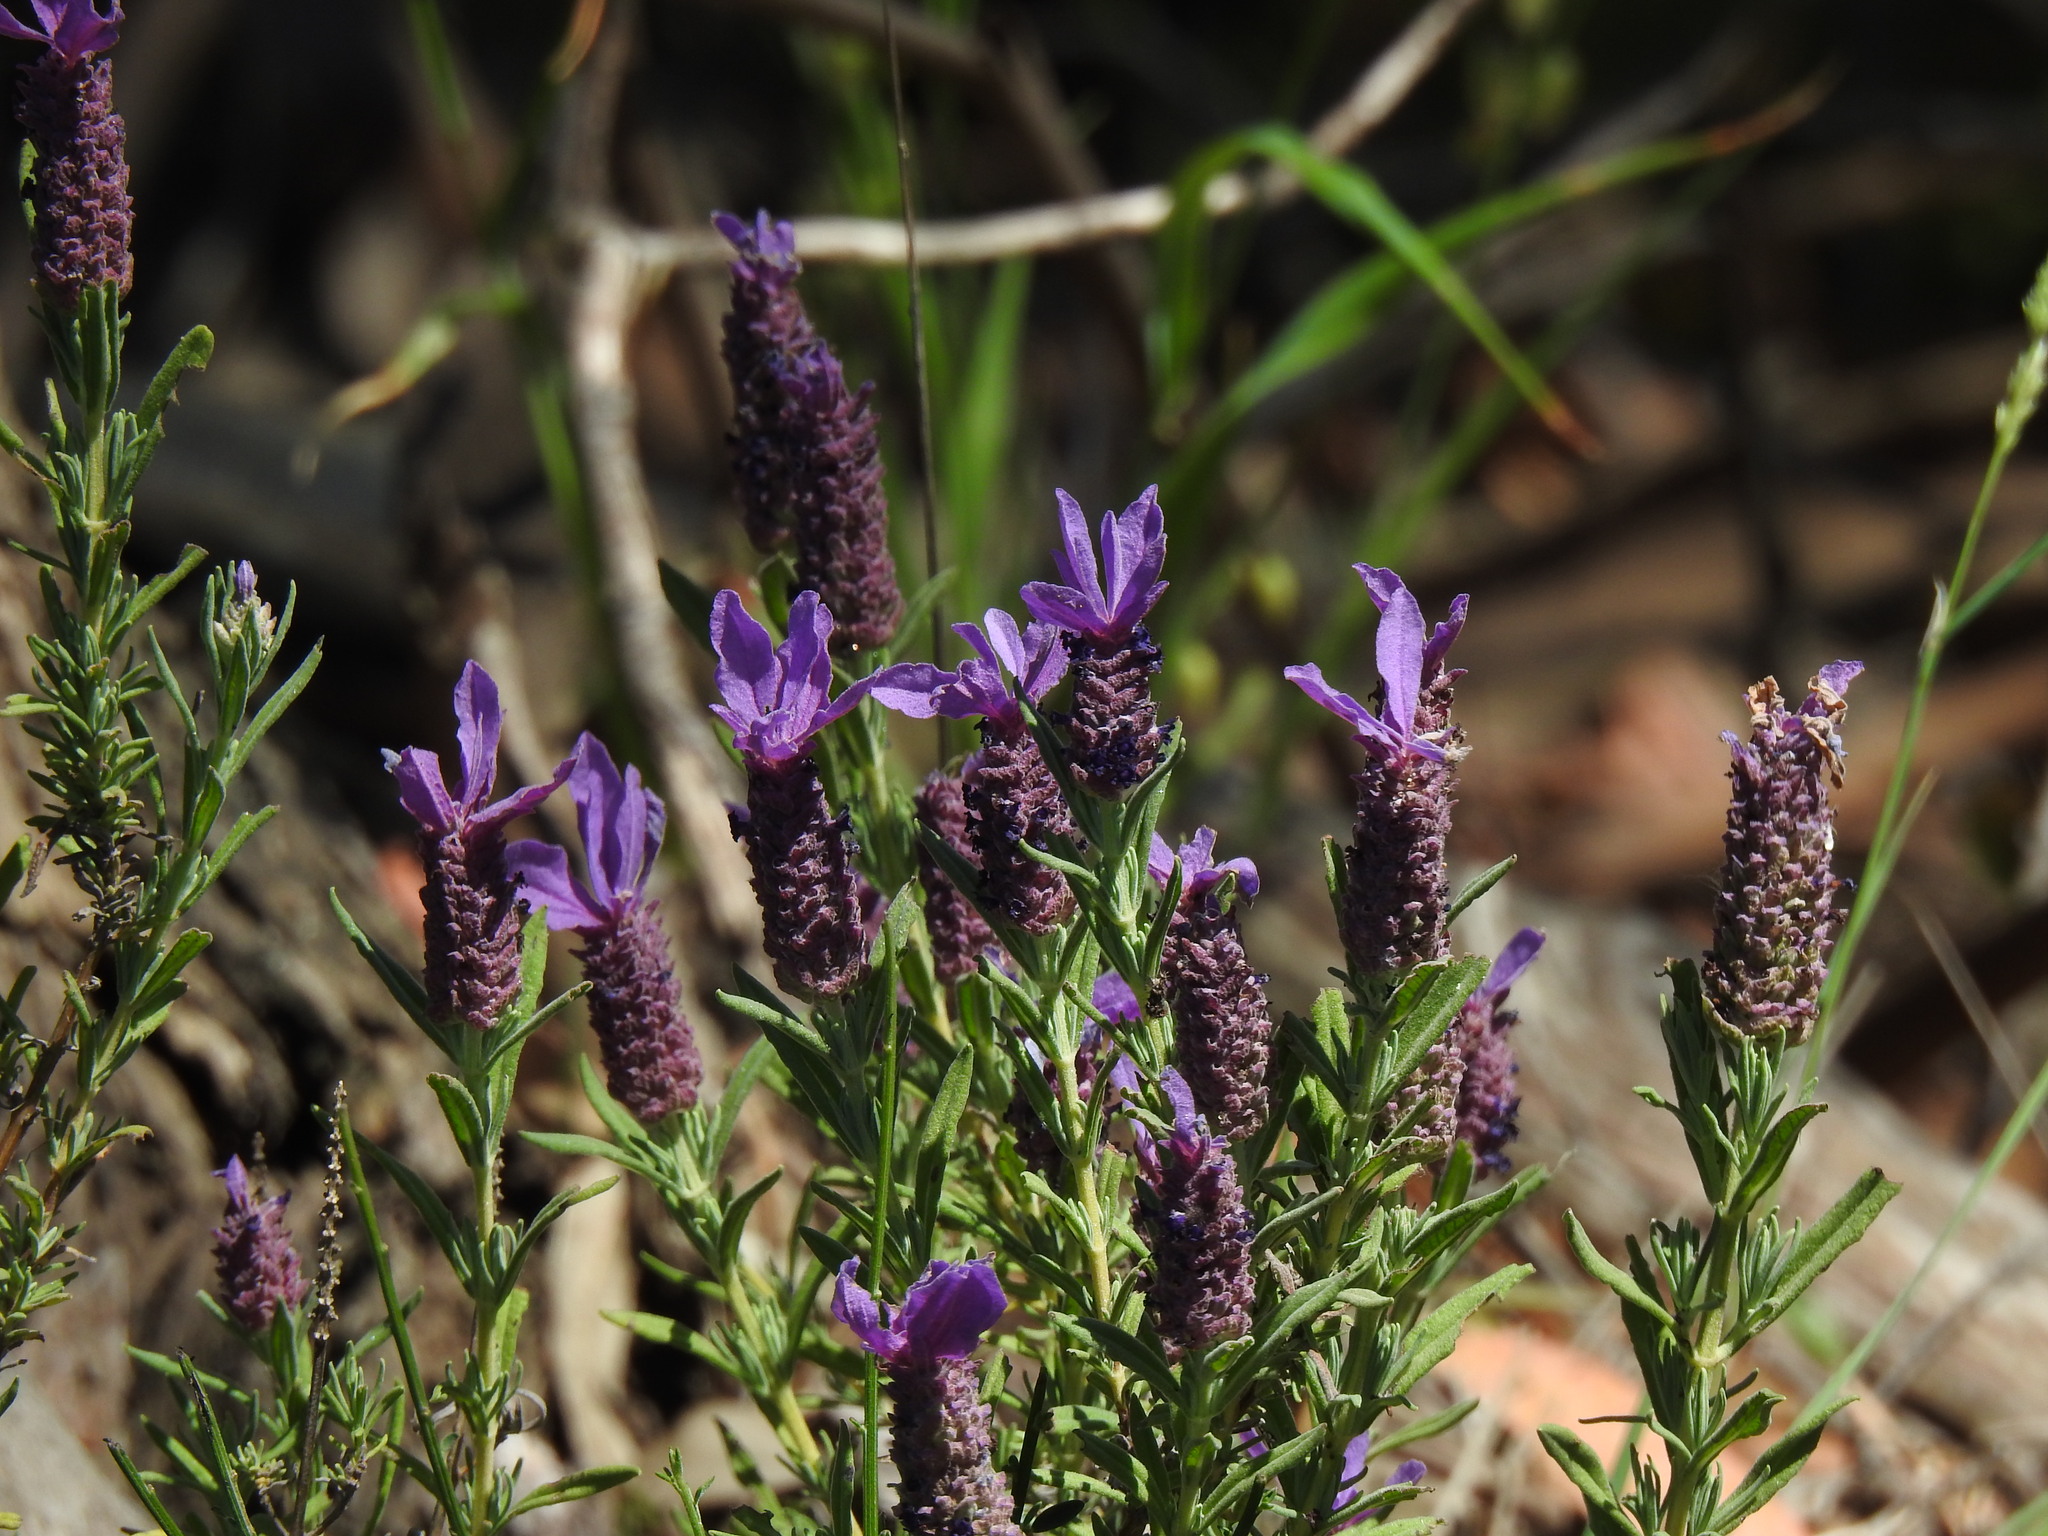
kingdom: Plantae
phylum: Tracheophyta
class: Magnoliopsida
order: Lamiales
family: Lamiaceae
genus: Lavandula
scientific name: Lavandula stoechas
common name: French lavender
